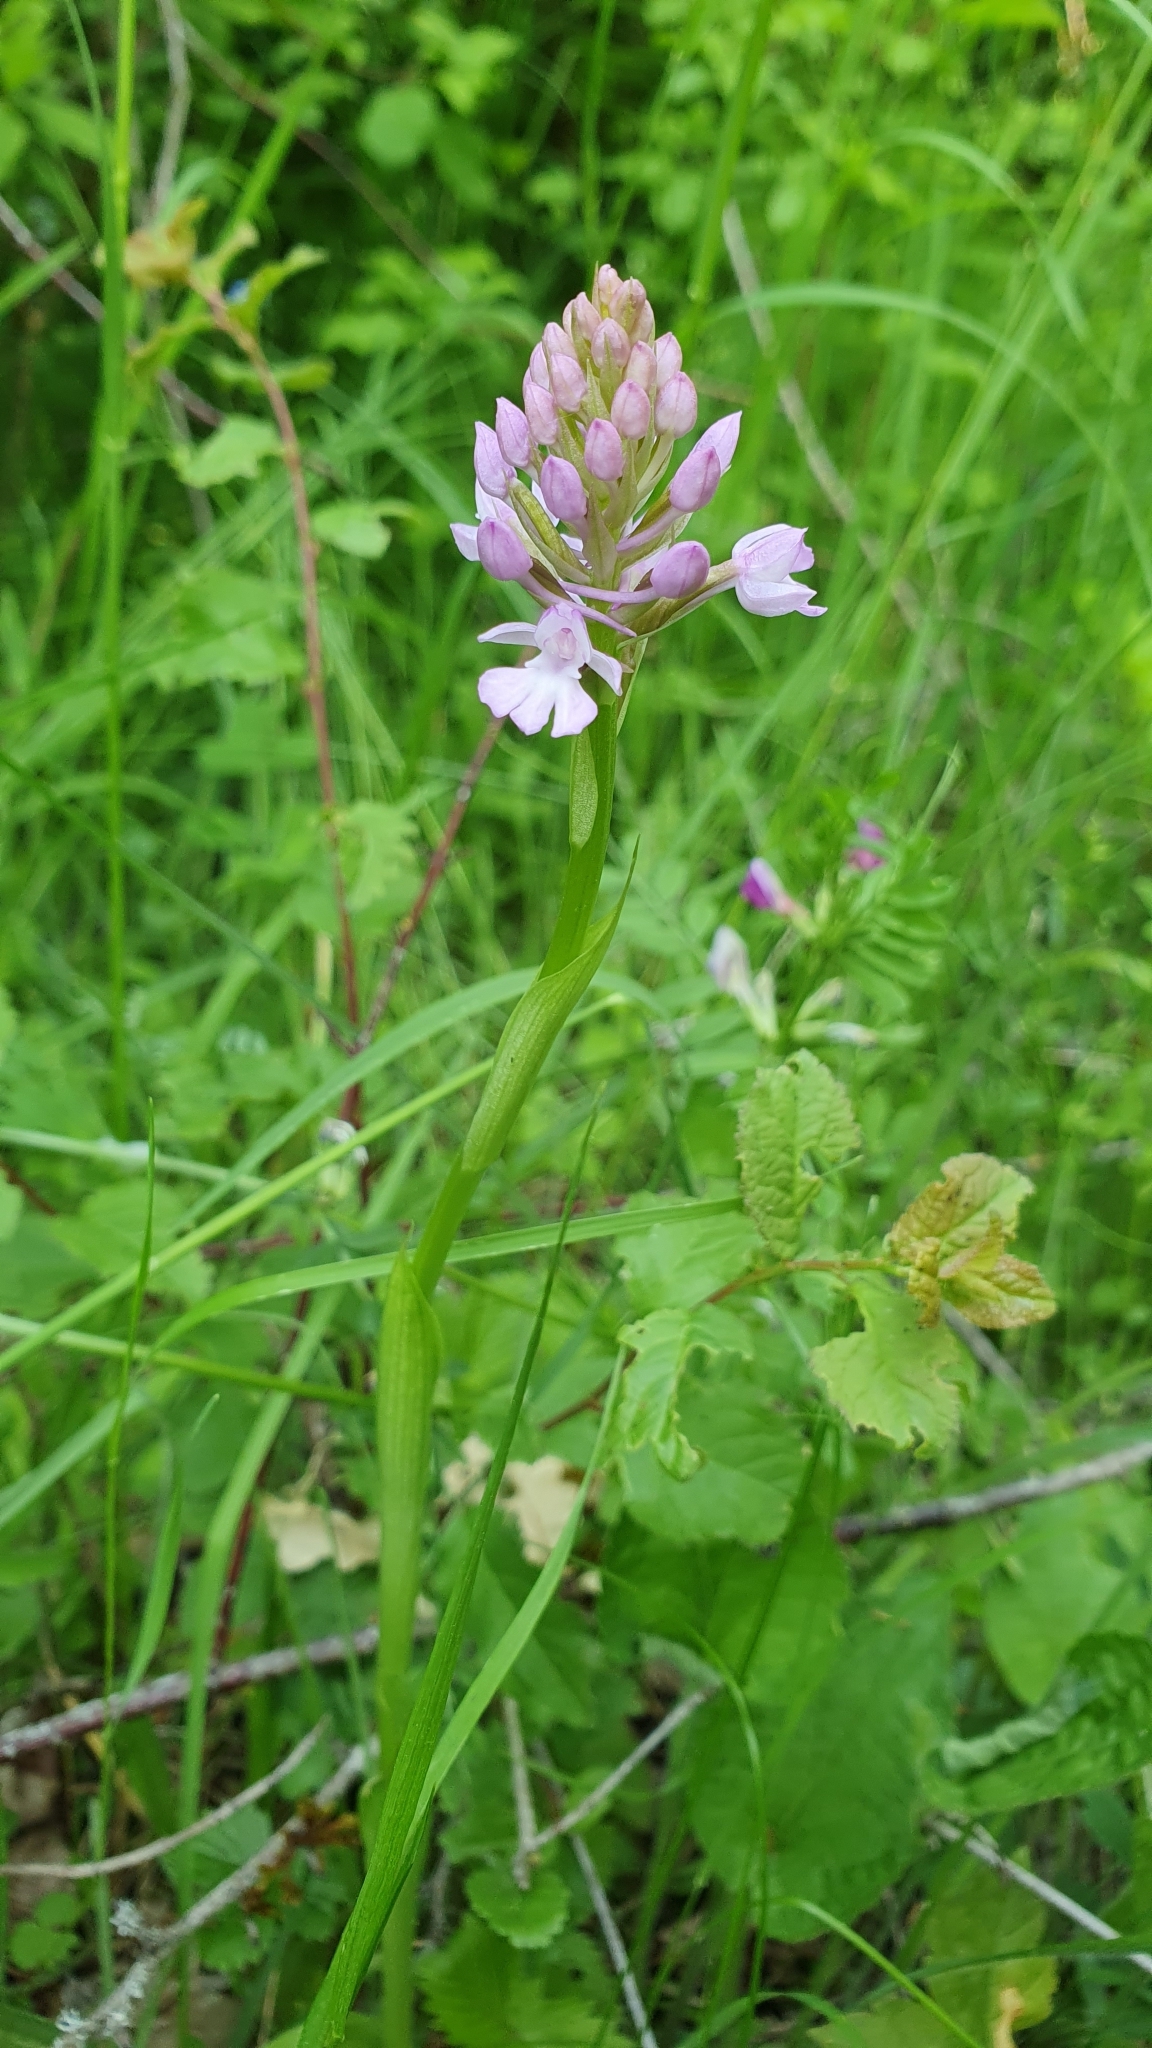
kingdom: Plantae
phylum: Tracheophyta
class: Liliopsida
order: Asparagales
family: Orchidaceae
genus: Anacamptis
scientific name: Anacamptis pyramidalis
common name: Pyramidal orchid
